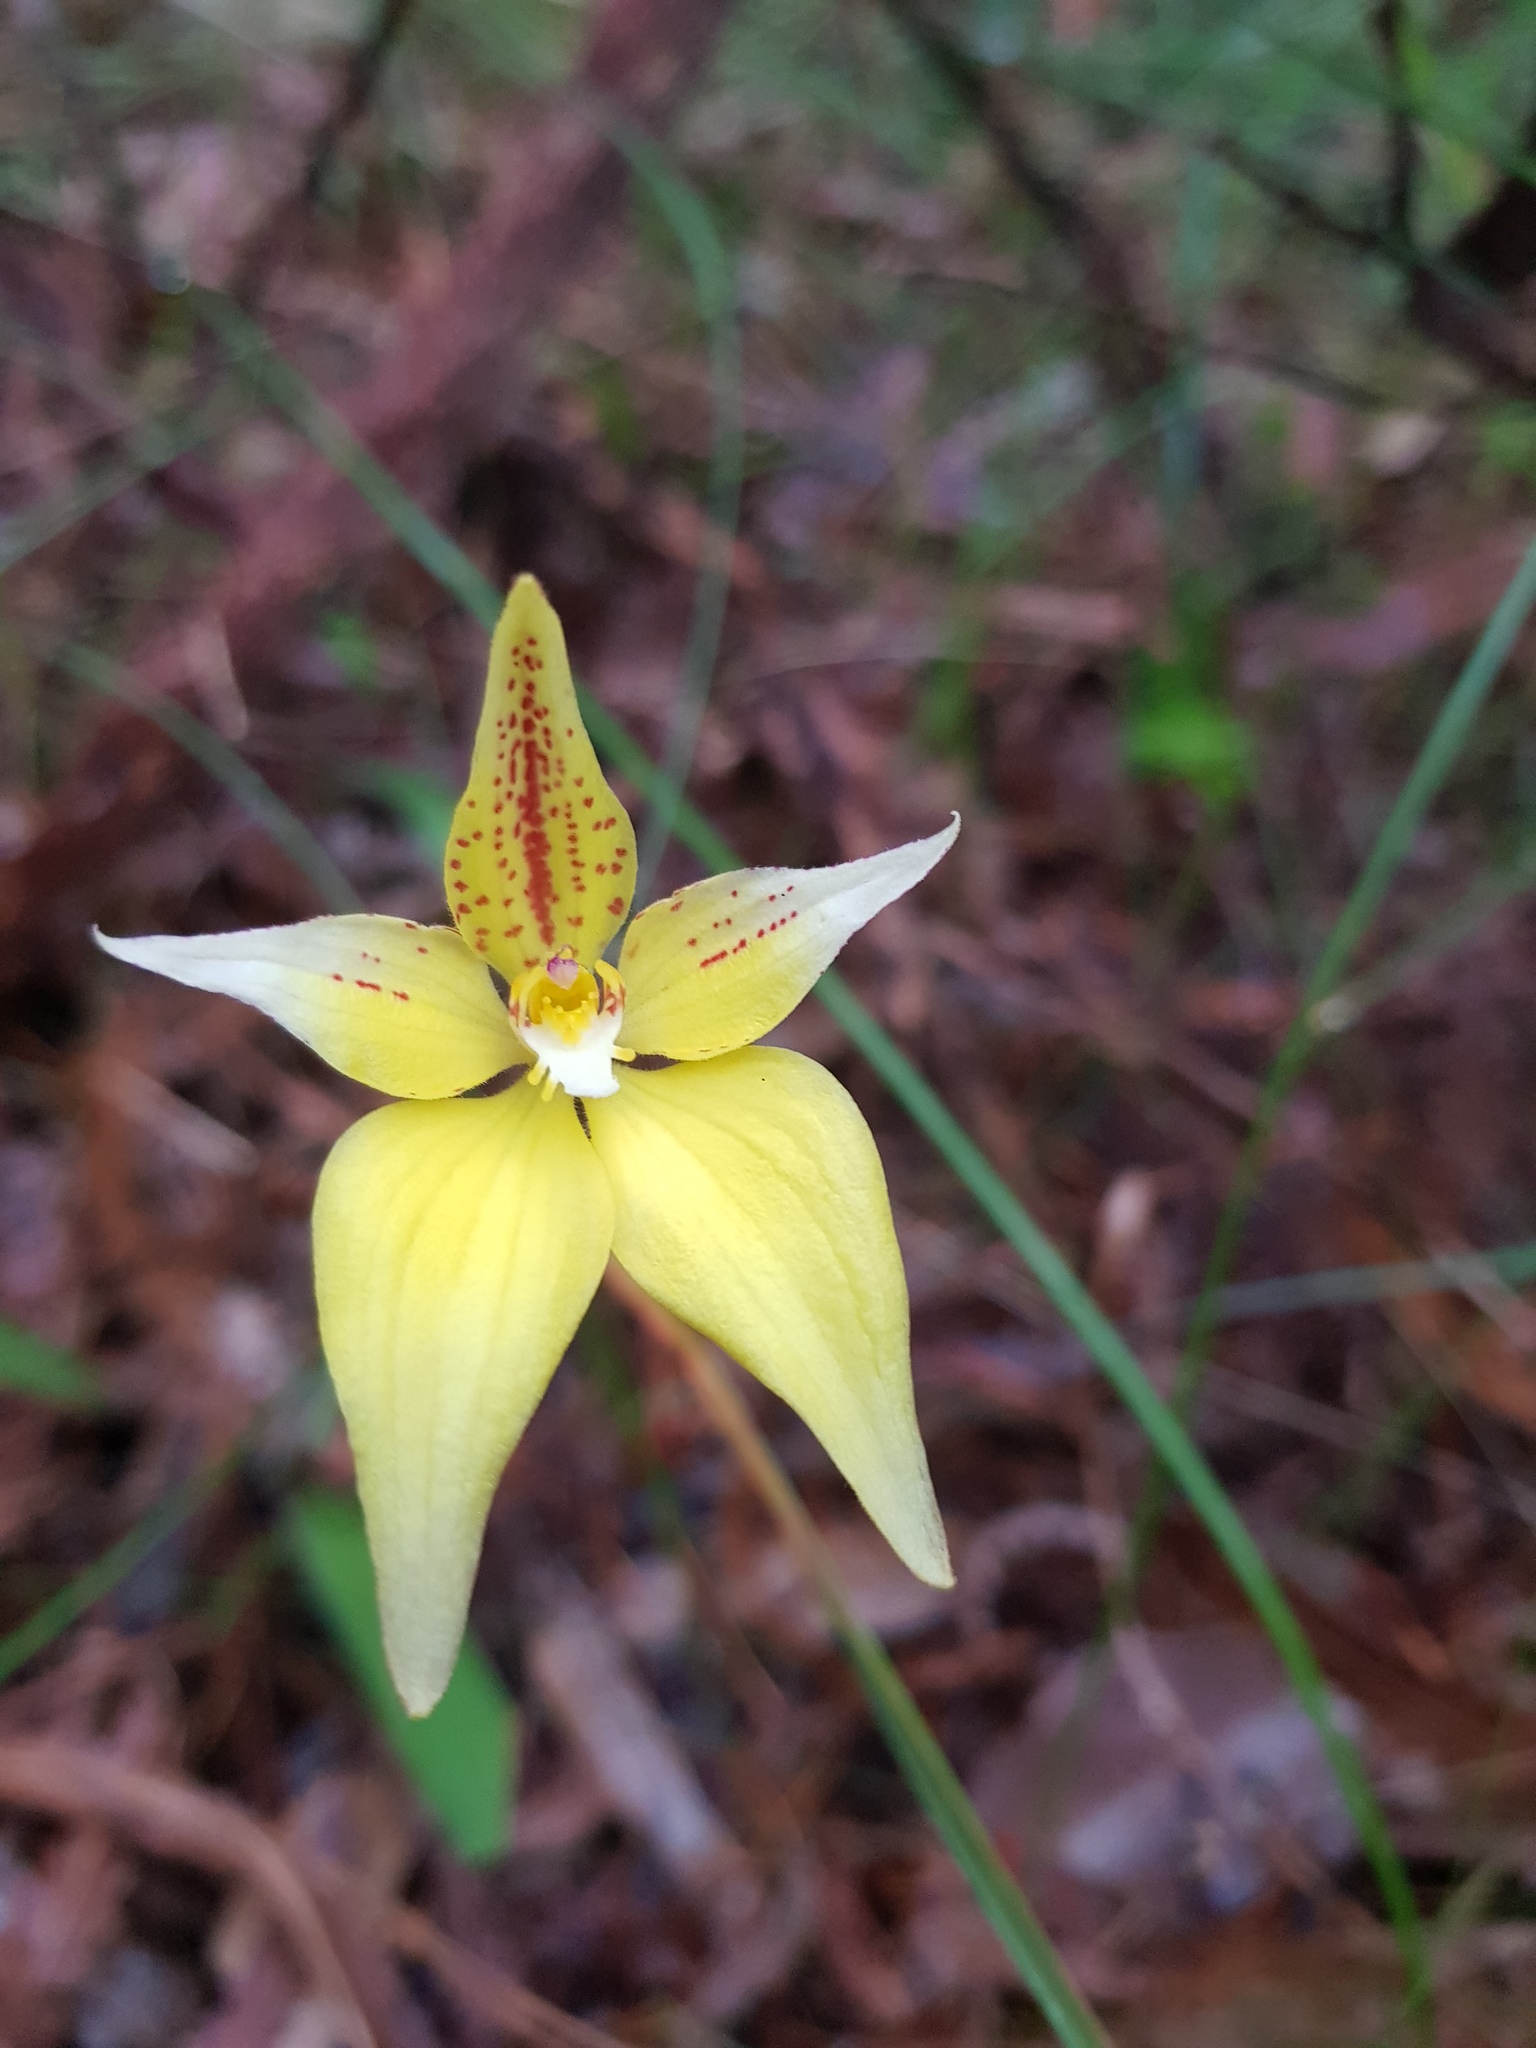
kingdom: Plantae
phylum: Tracheophyta
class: Liliopsida
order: Asparagales
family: Orchidaceae
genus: Caladenia
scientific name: Caladenia flava
